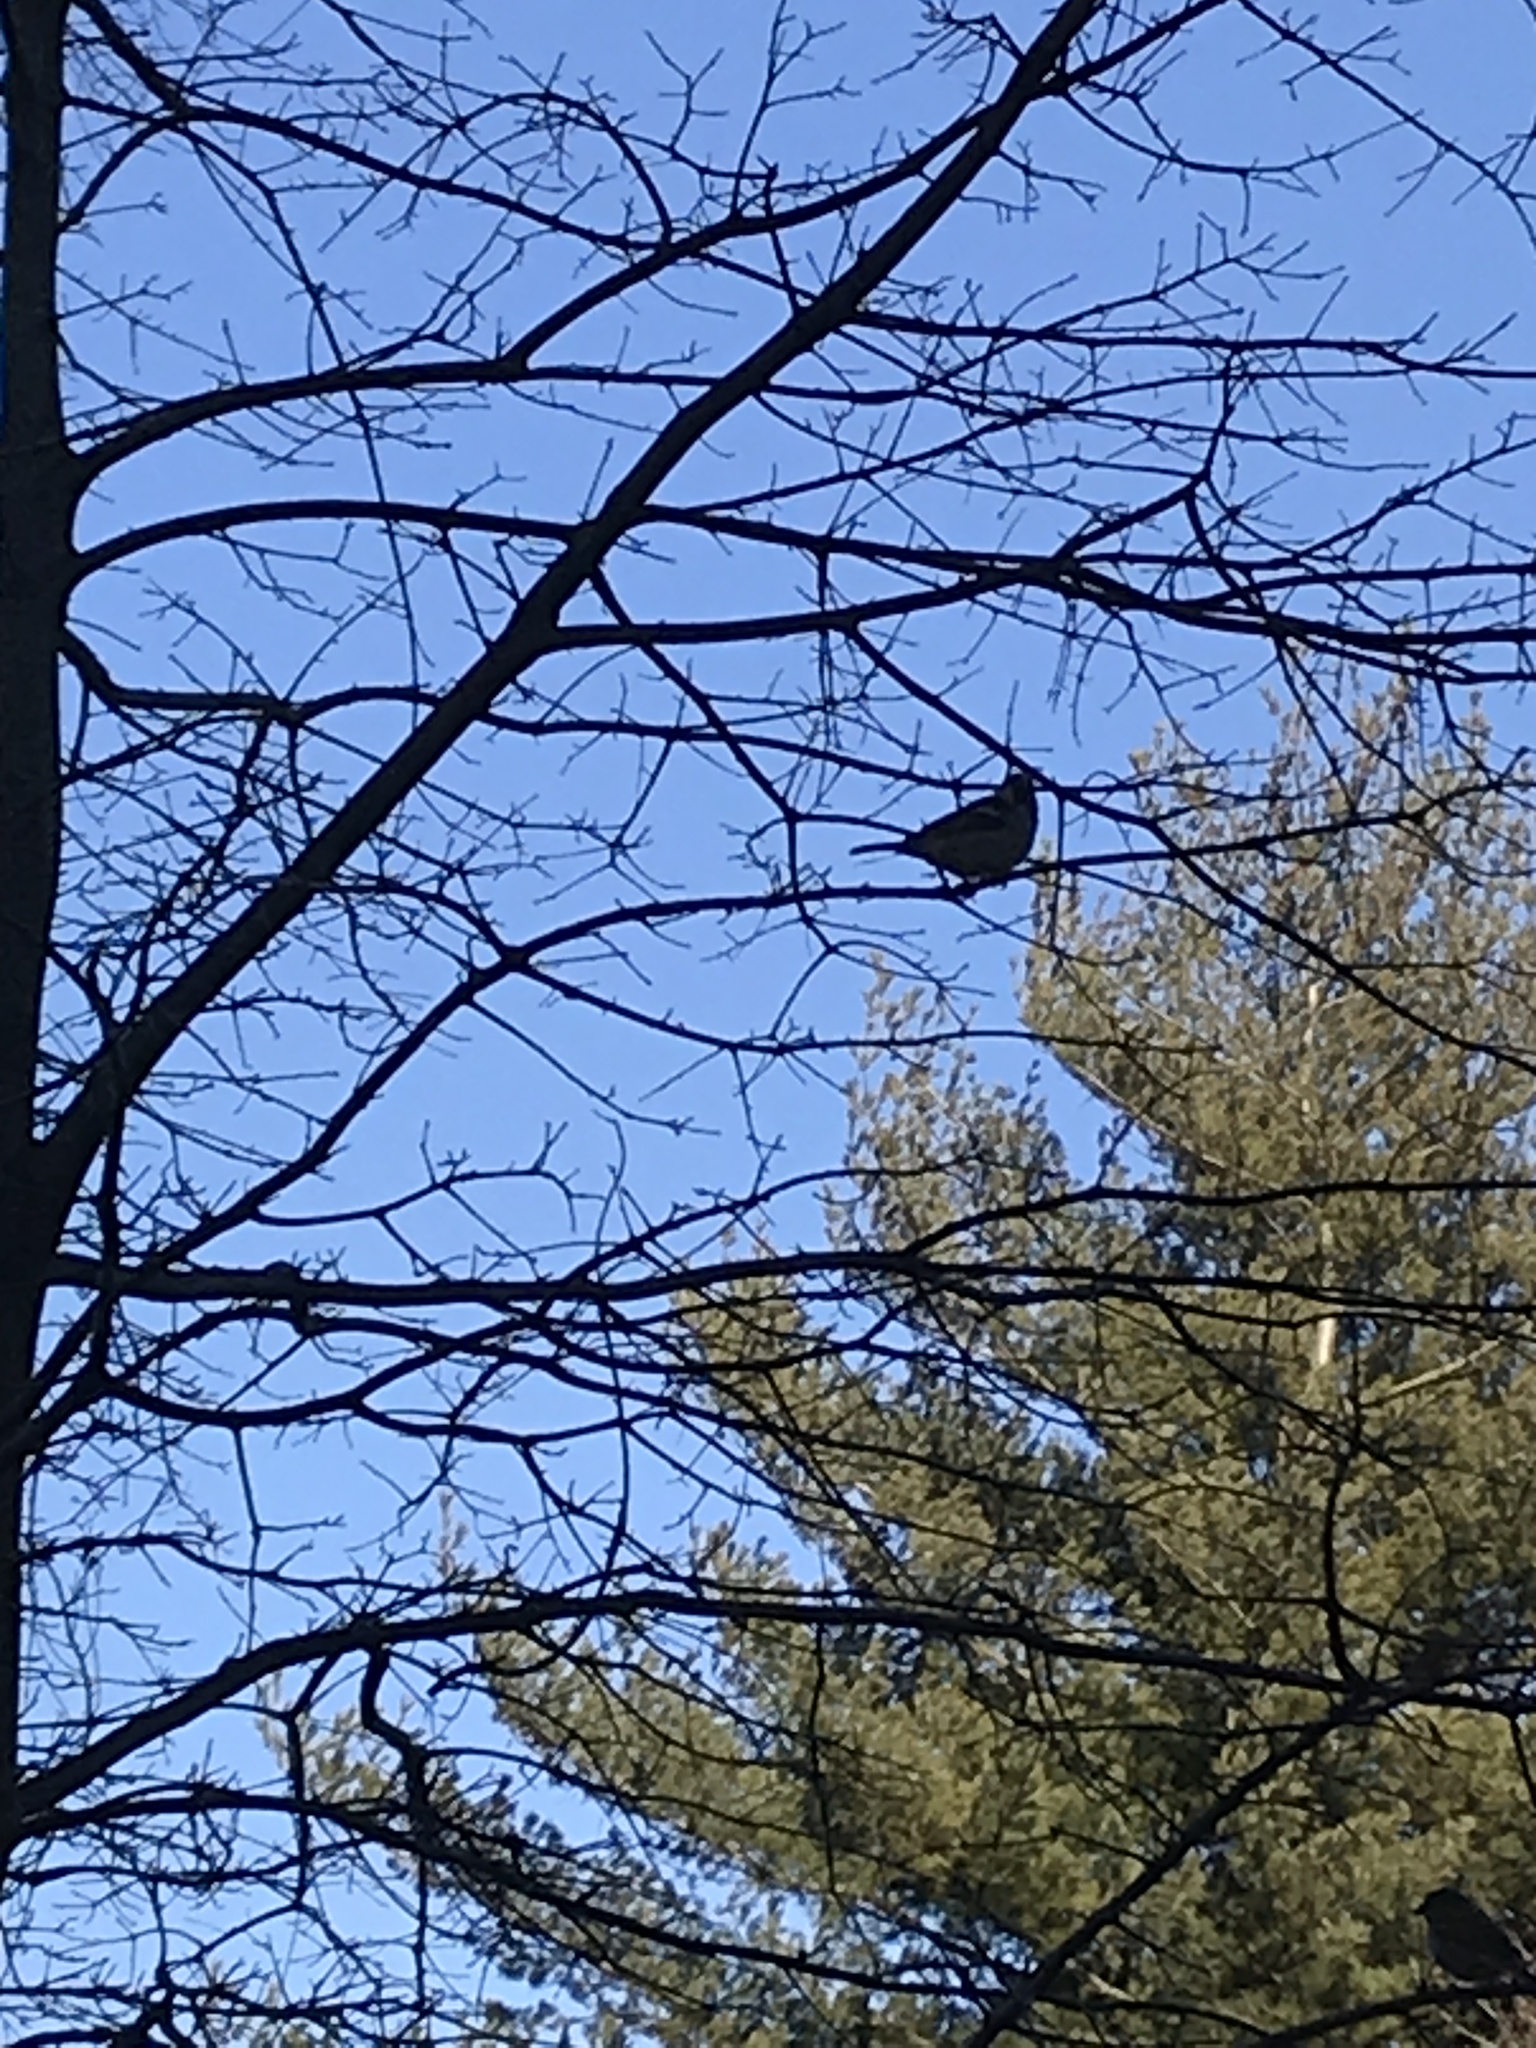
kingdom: Animalia
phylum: Chordata
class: Aves
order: Passeriformes
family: Passeridae
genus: Passer
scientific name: Passer domesticus
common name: House sparrow
